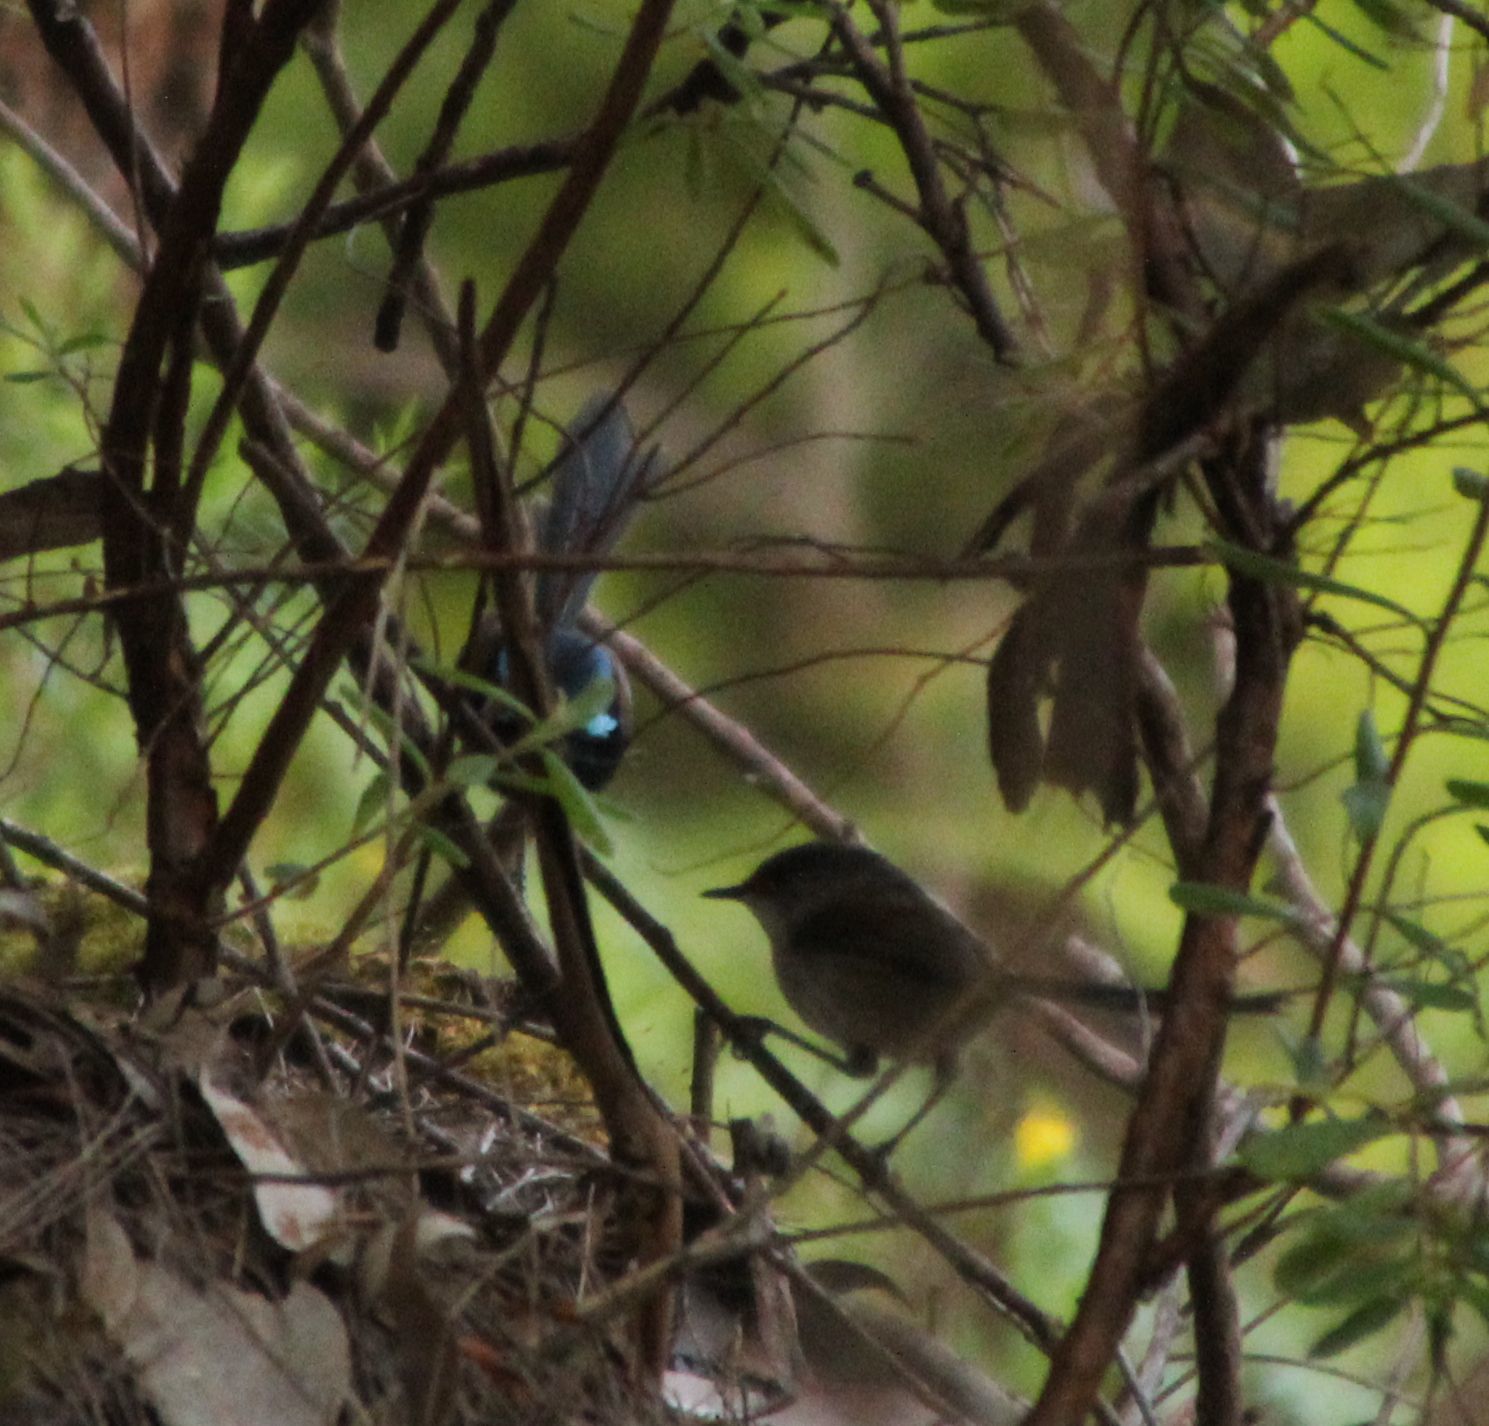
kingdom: Animalia
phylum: Chordata
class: Aves
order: Passeriformes
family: Maluridae
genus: Malurus
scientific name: Malurus elegans
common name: Red-winged fairywren
